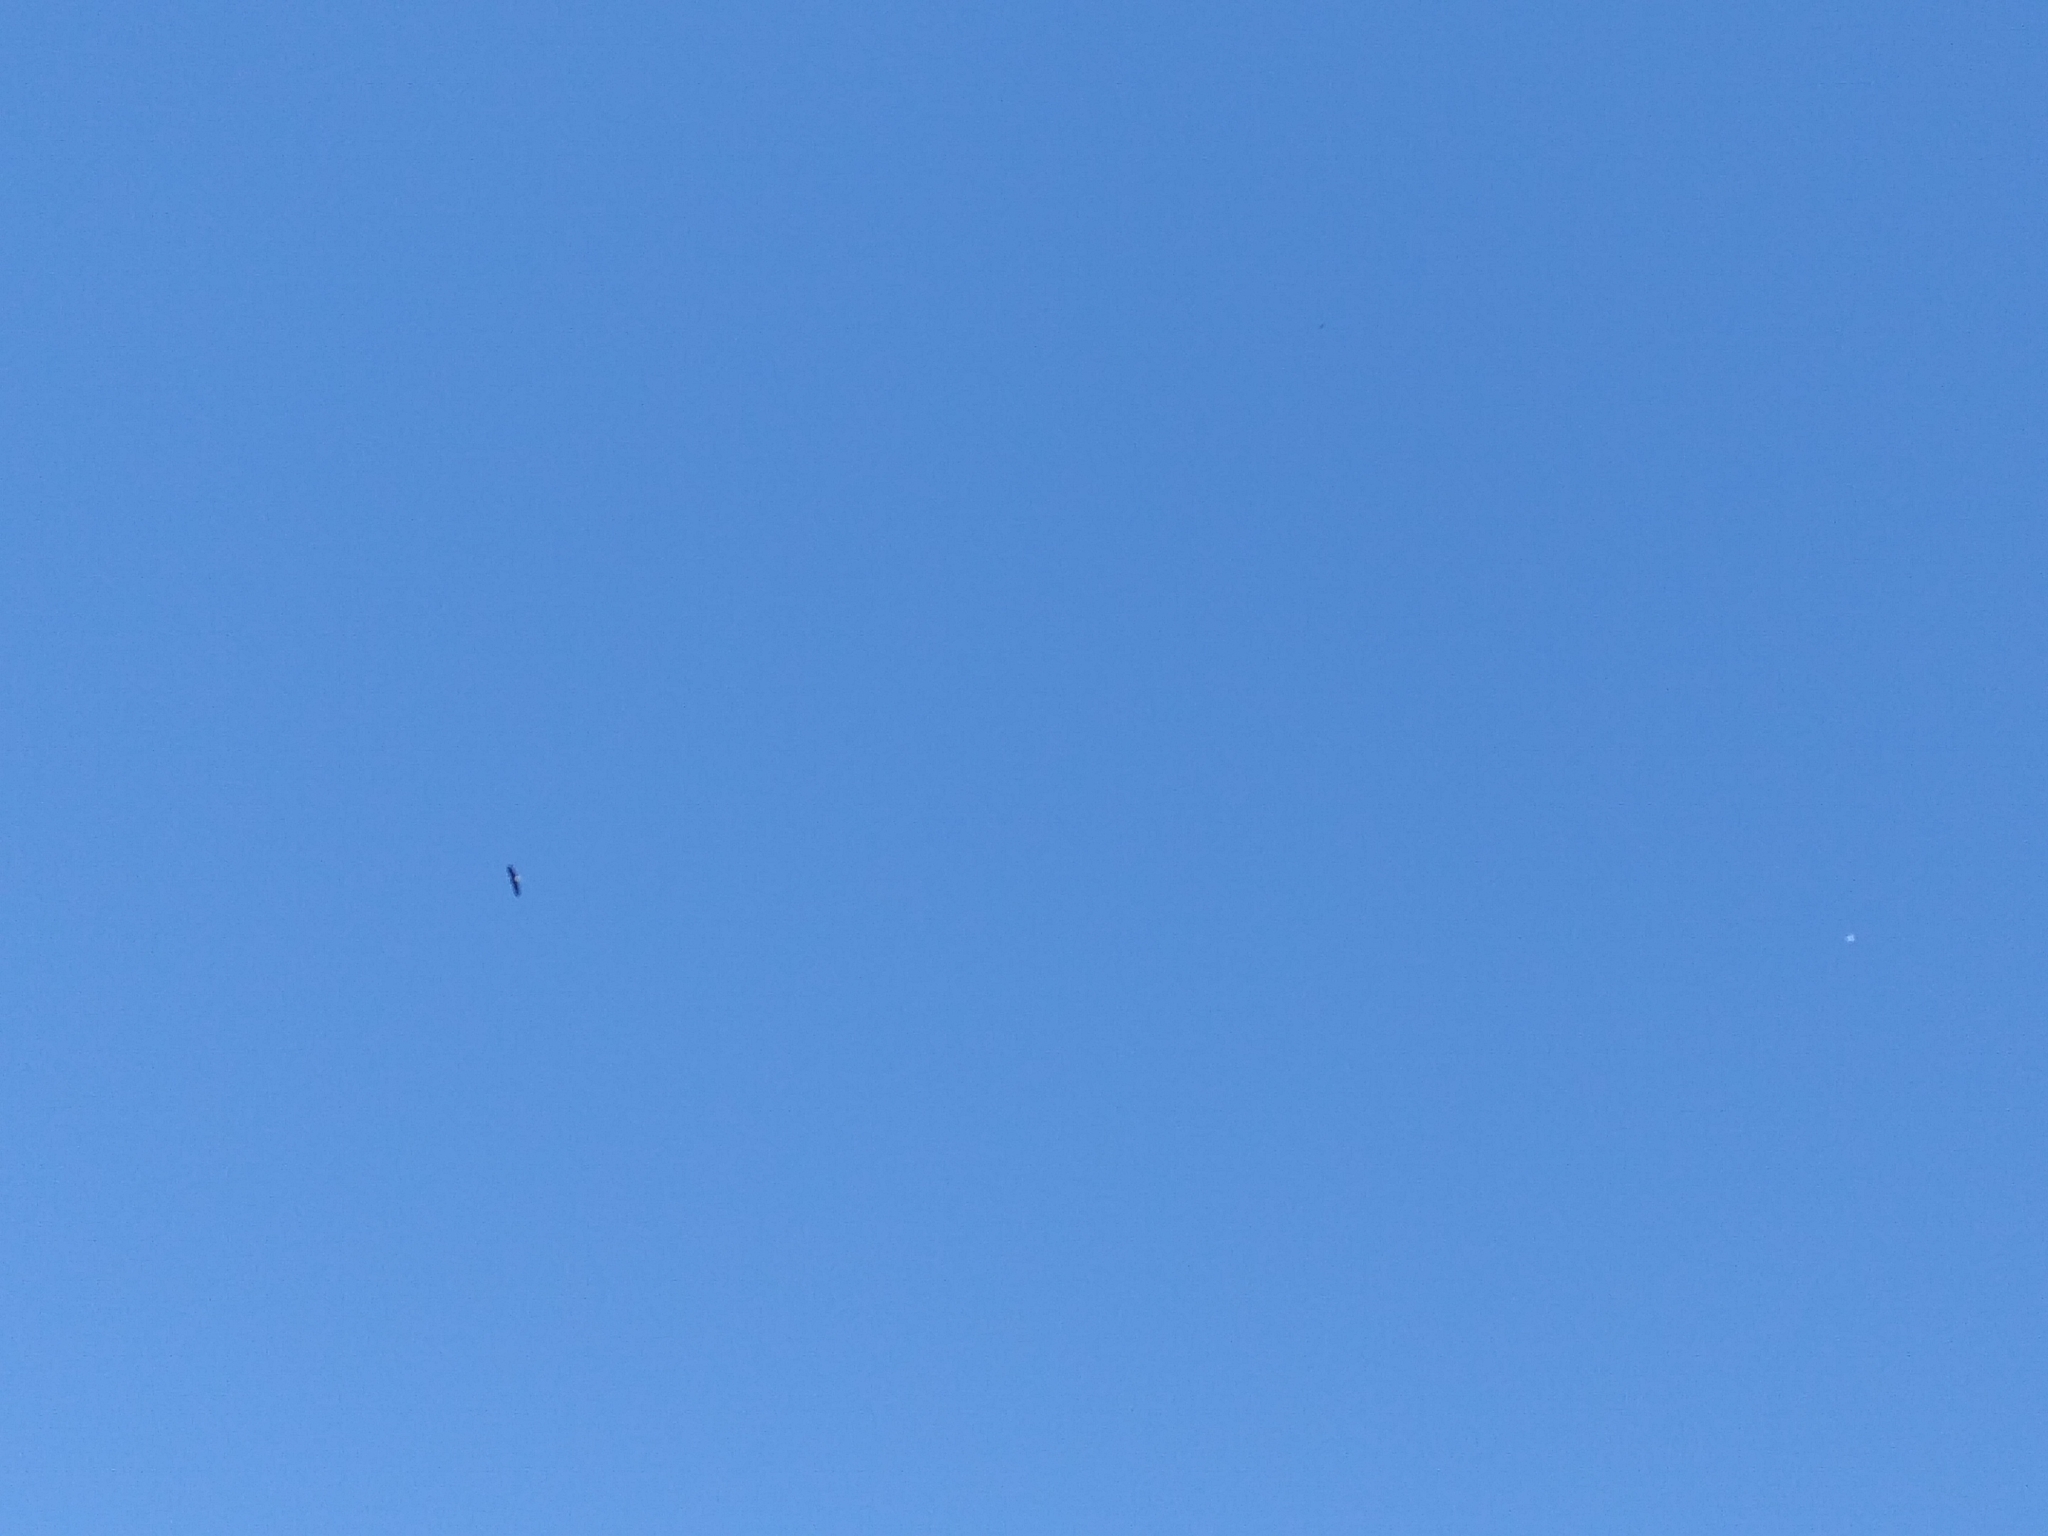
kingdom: Animalia
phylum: Chordata
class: Aves
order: Accipitriformes
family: Accipitridae
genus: Haliaeetus
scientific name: Haliaeetus leucocephalus
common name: Bald eagle
